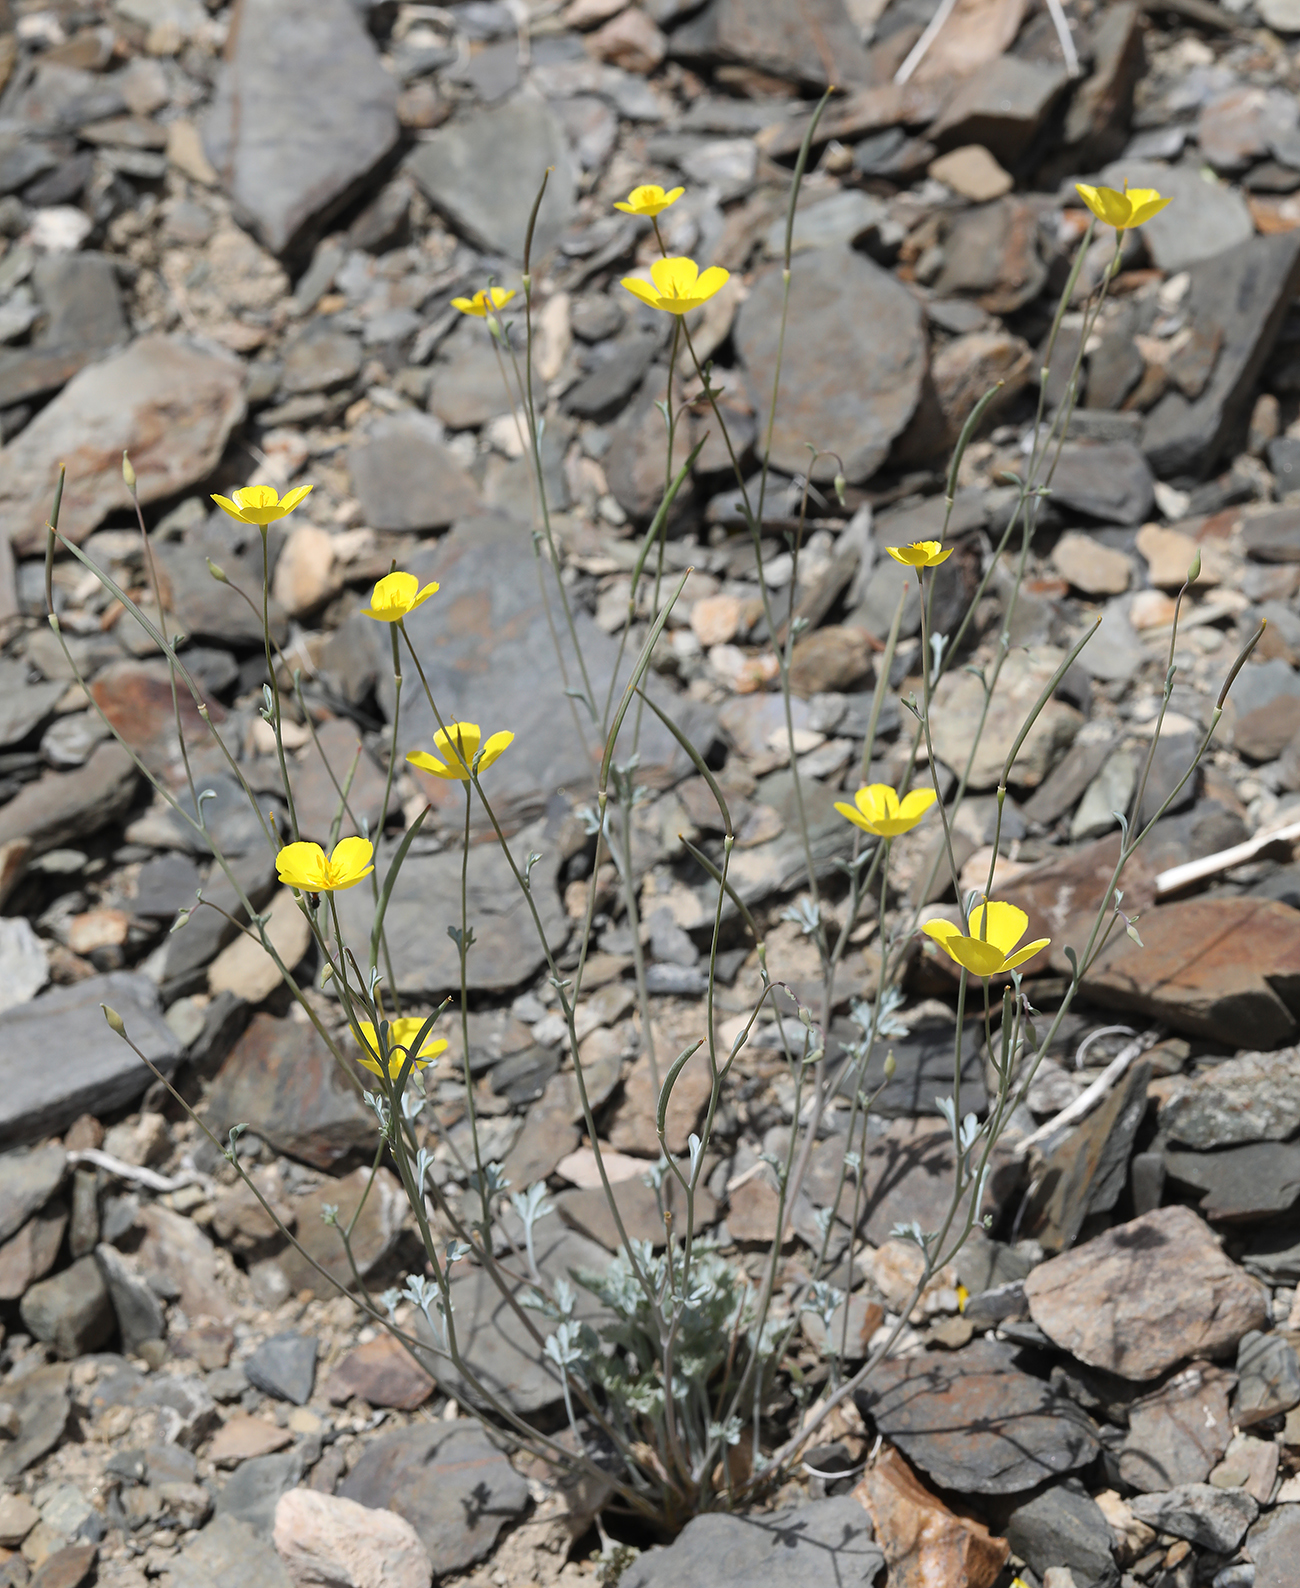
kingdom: Plantae
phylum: Tracheophyta
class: Magnoliopsida
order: Ranunculales
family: Papaveraceae
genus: Eschscholzia
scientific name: Eschscholzia minutiflora
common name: Small-flower california-poppy
